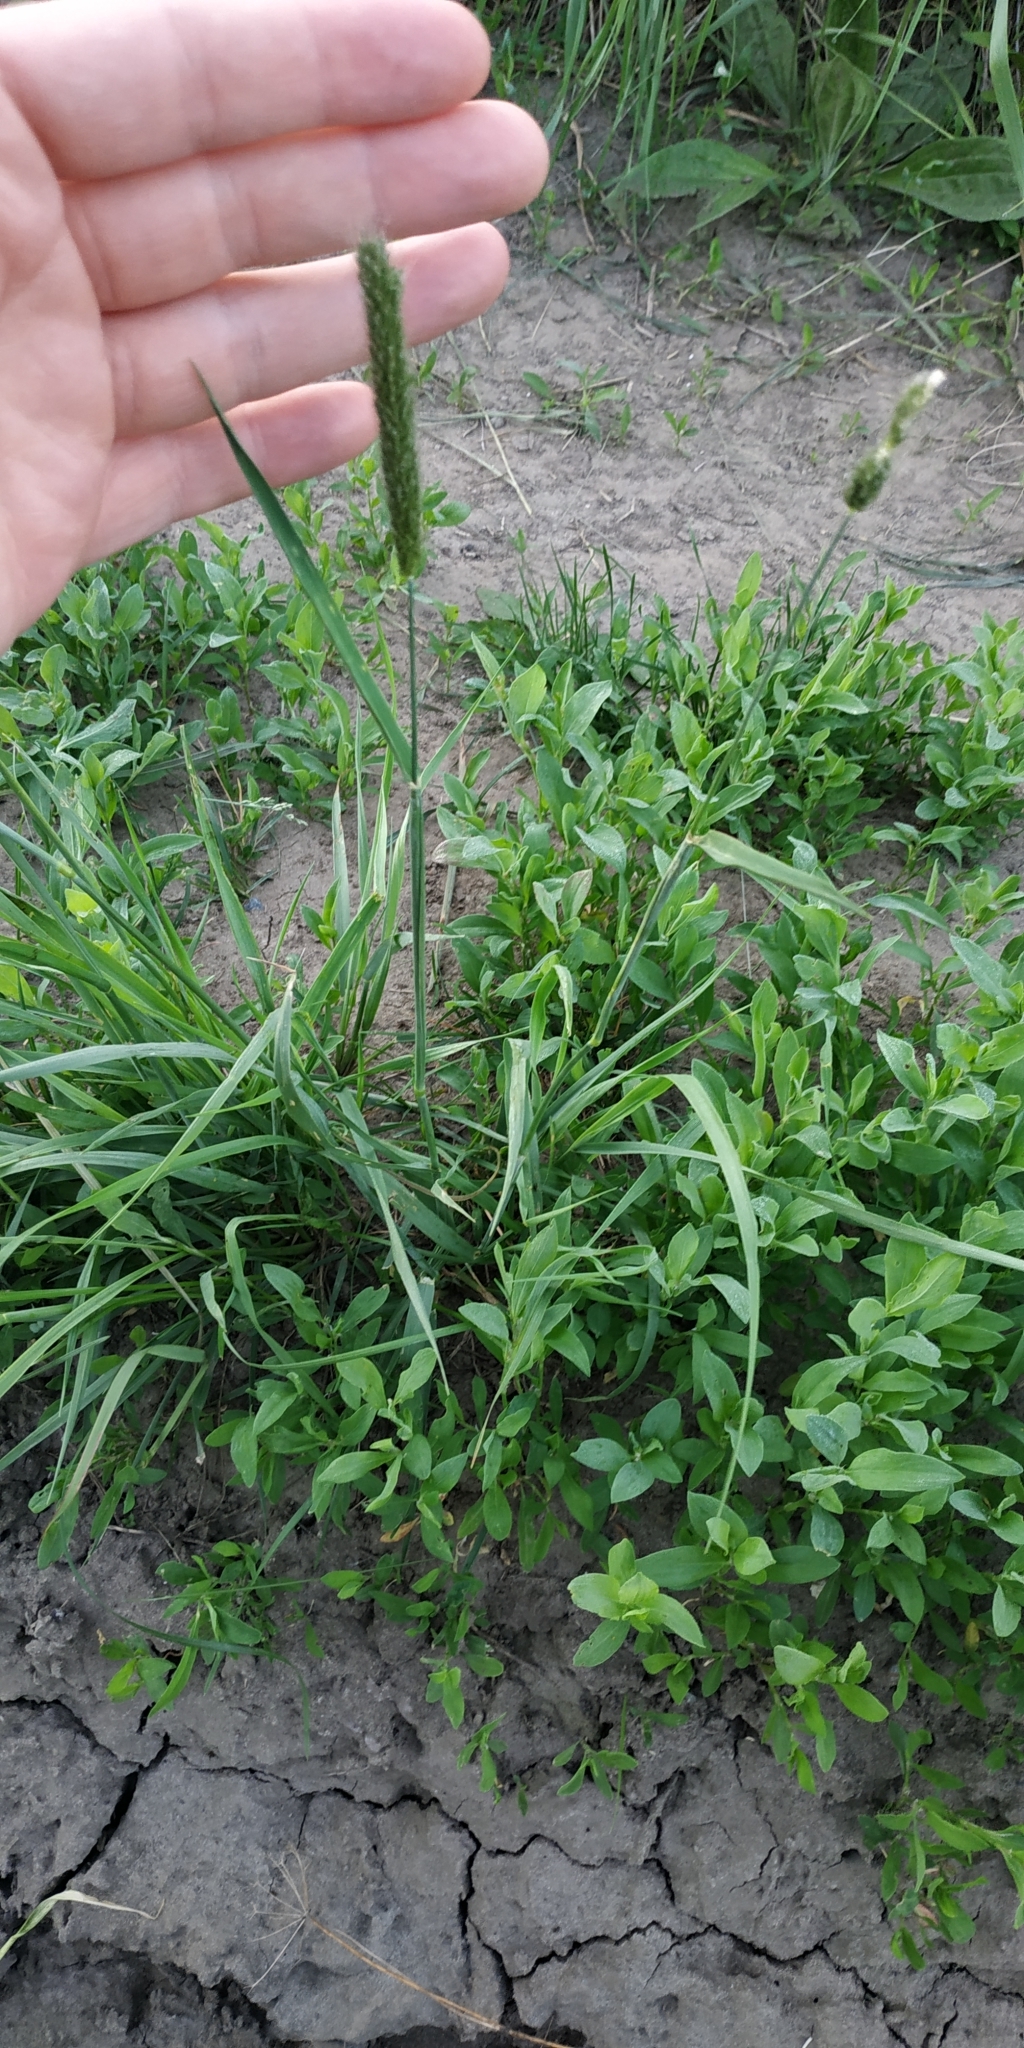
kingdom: Plantae
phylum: Tracheophyta
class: Liliopsida
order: Poales
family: Poaceae
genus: Alopecurus
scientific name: Alopecurus pratensis
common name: Meadow foxtail
